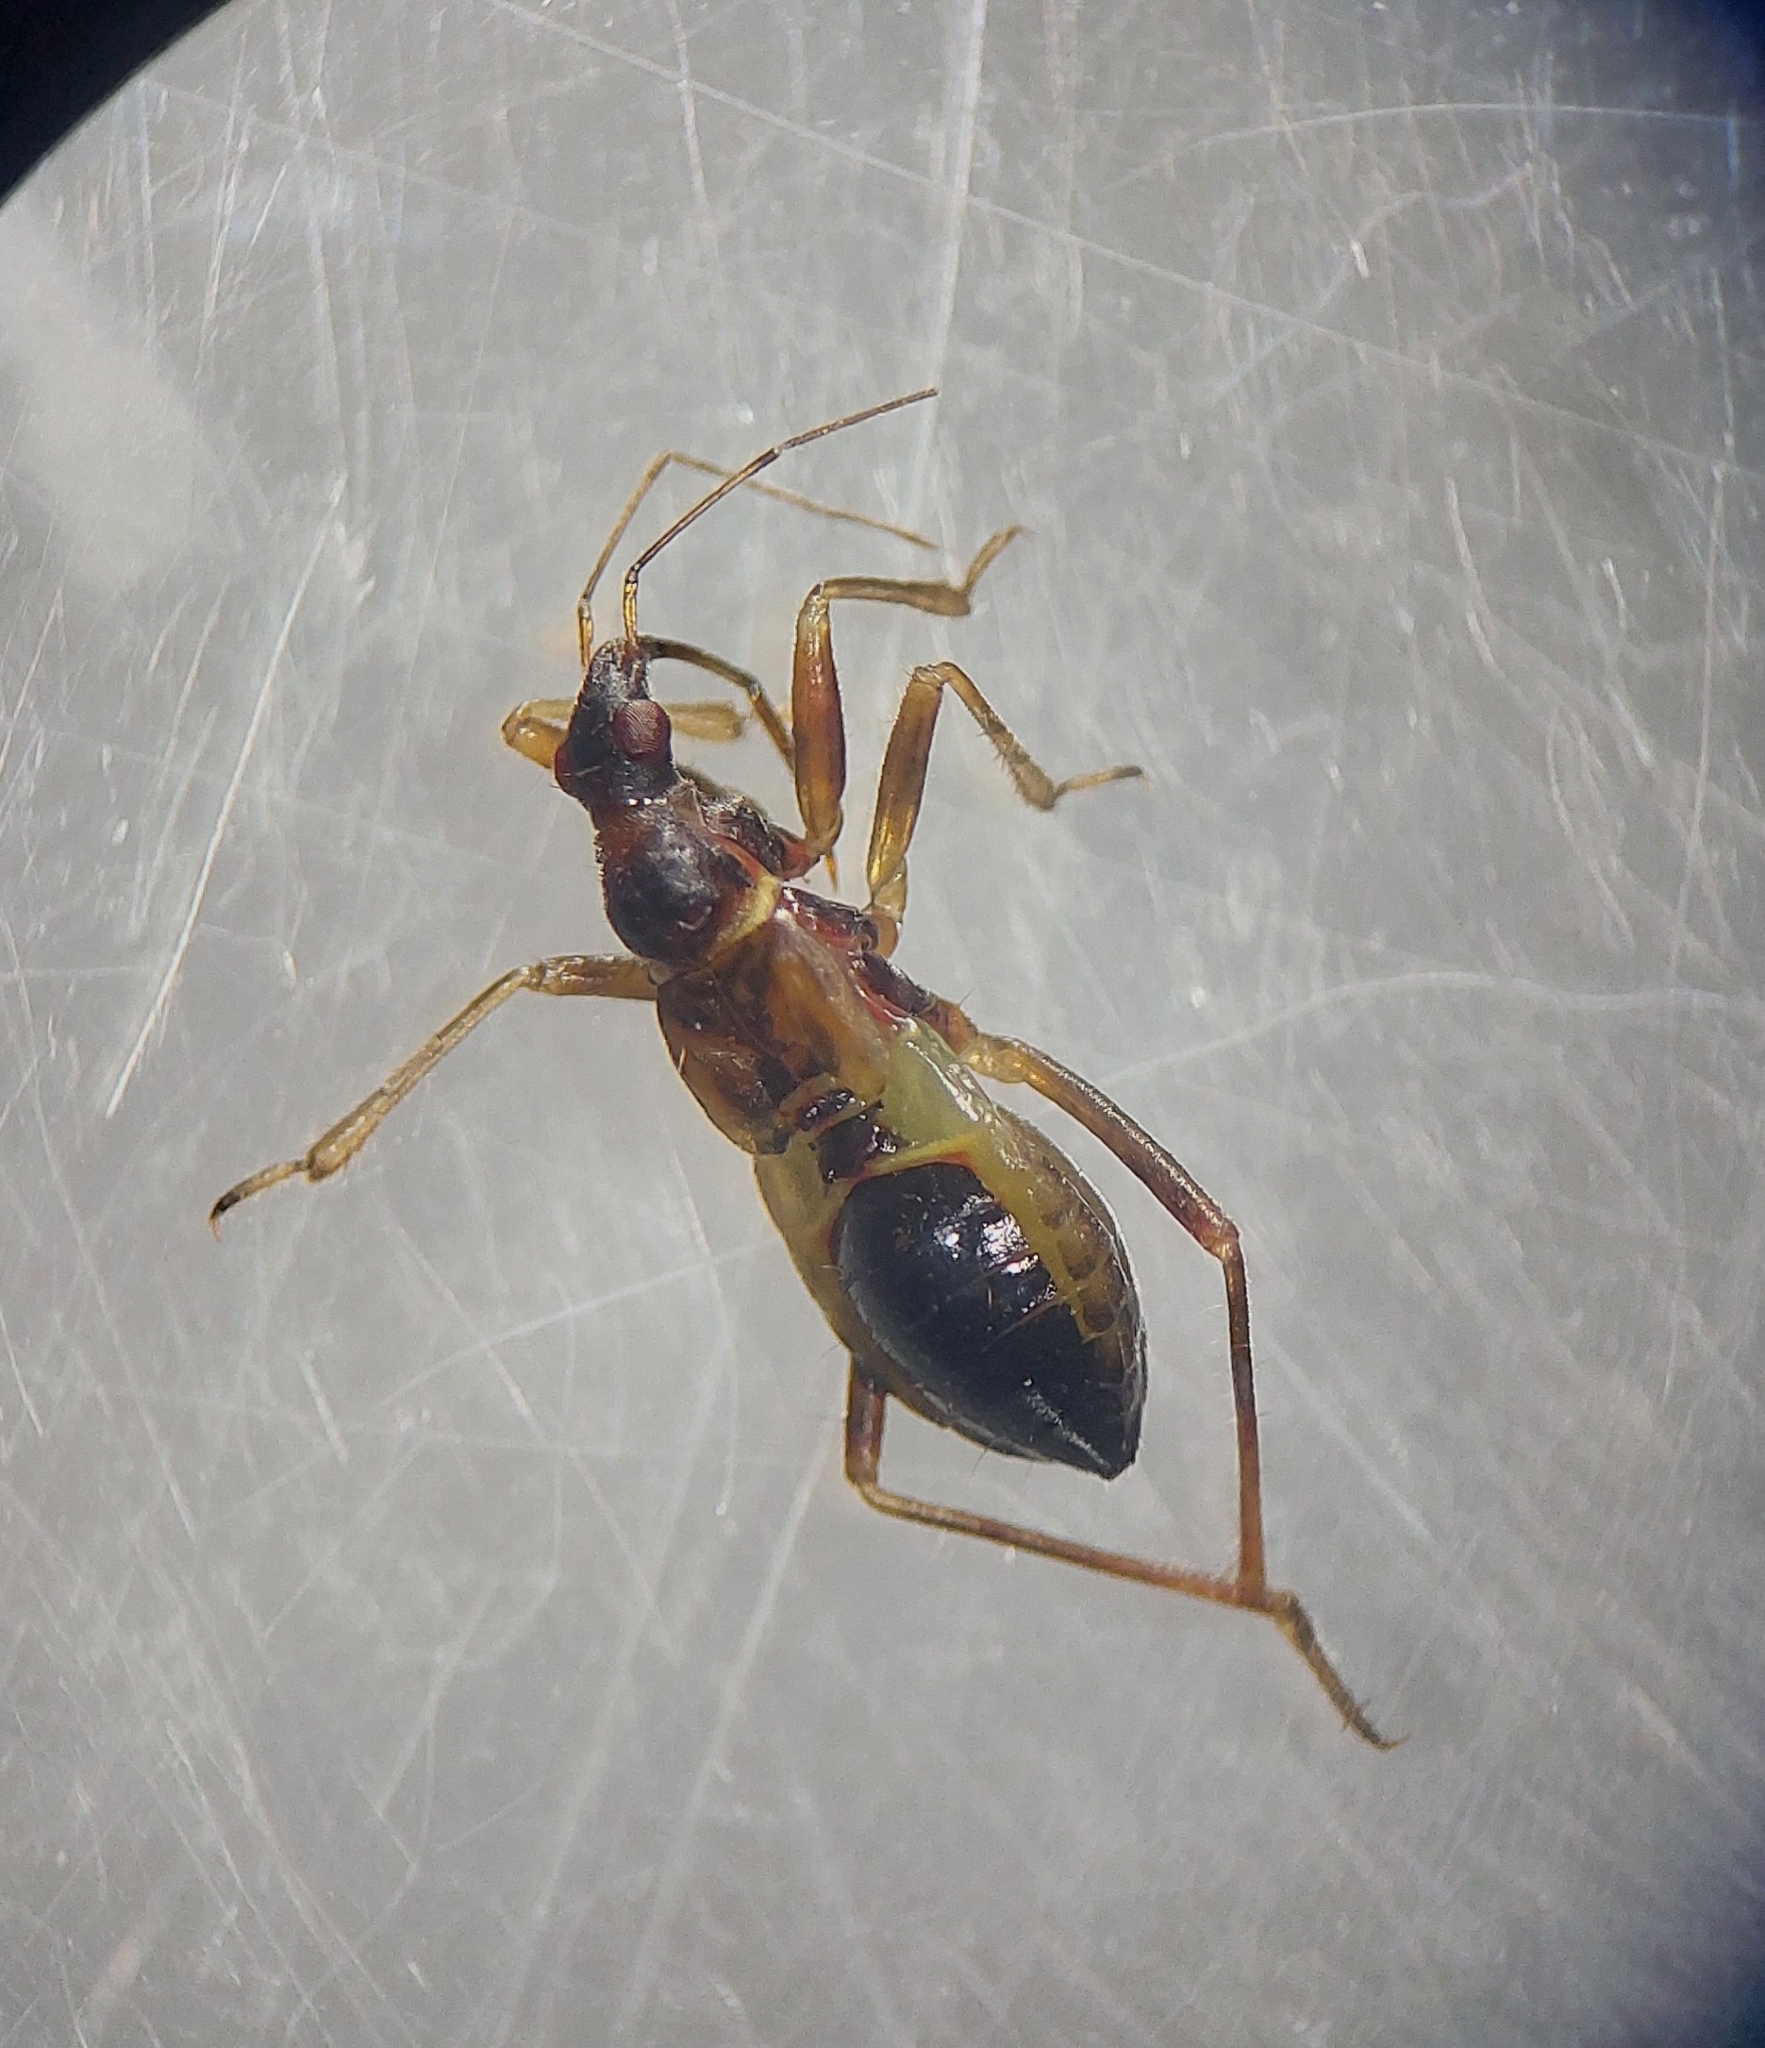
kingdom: Animalia
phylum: Arthropoda
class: Insecta
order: Hemiptera
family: Nabidae
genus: Himacerus
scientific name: Himacerus mirmicoides
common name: Ant damsel bug
